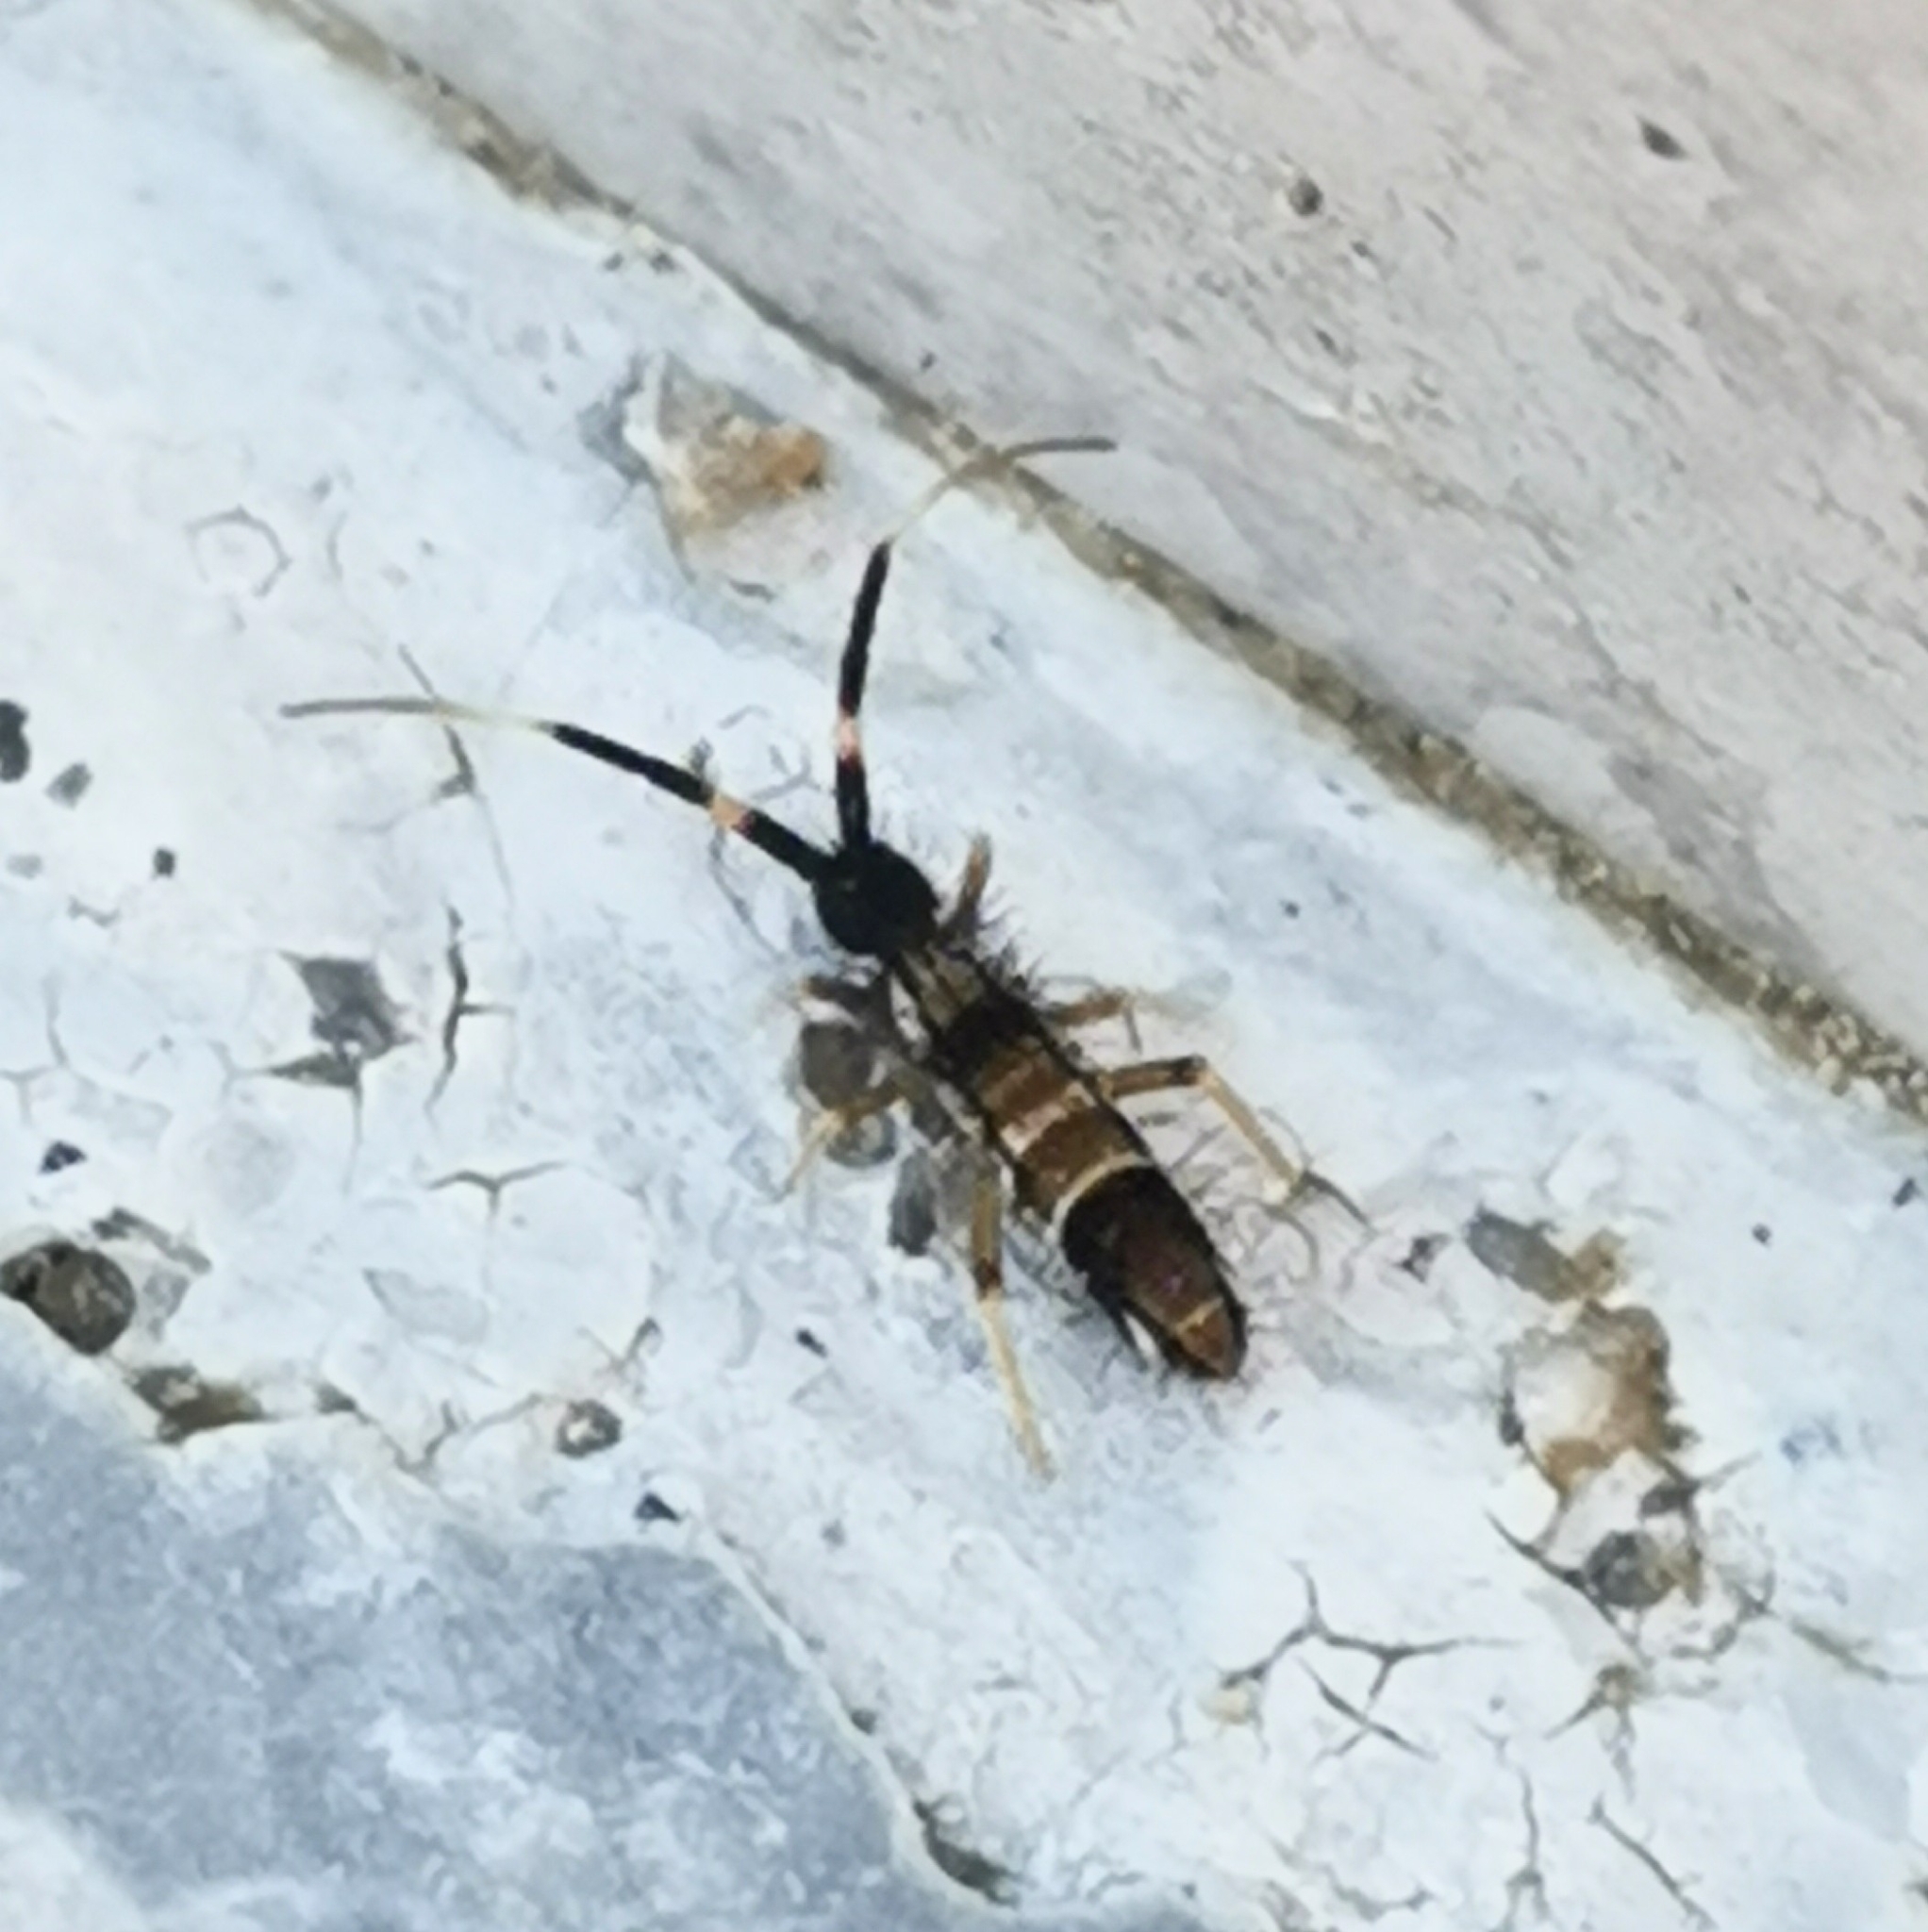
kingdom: Animalia
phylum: Arthropoda
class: Collembola
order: Entomobryomorpha
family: Entomobryidae
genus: Entomobrya
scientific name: Entomobrya nivalis
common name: Cosmopolitan springtail
